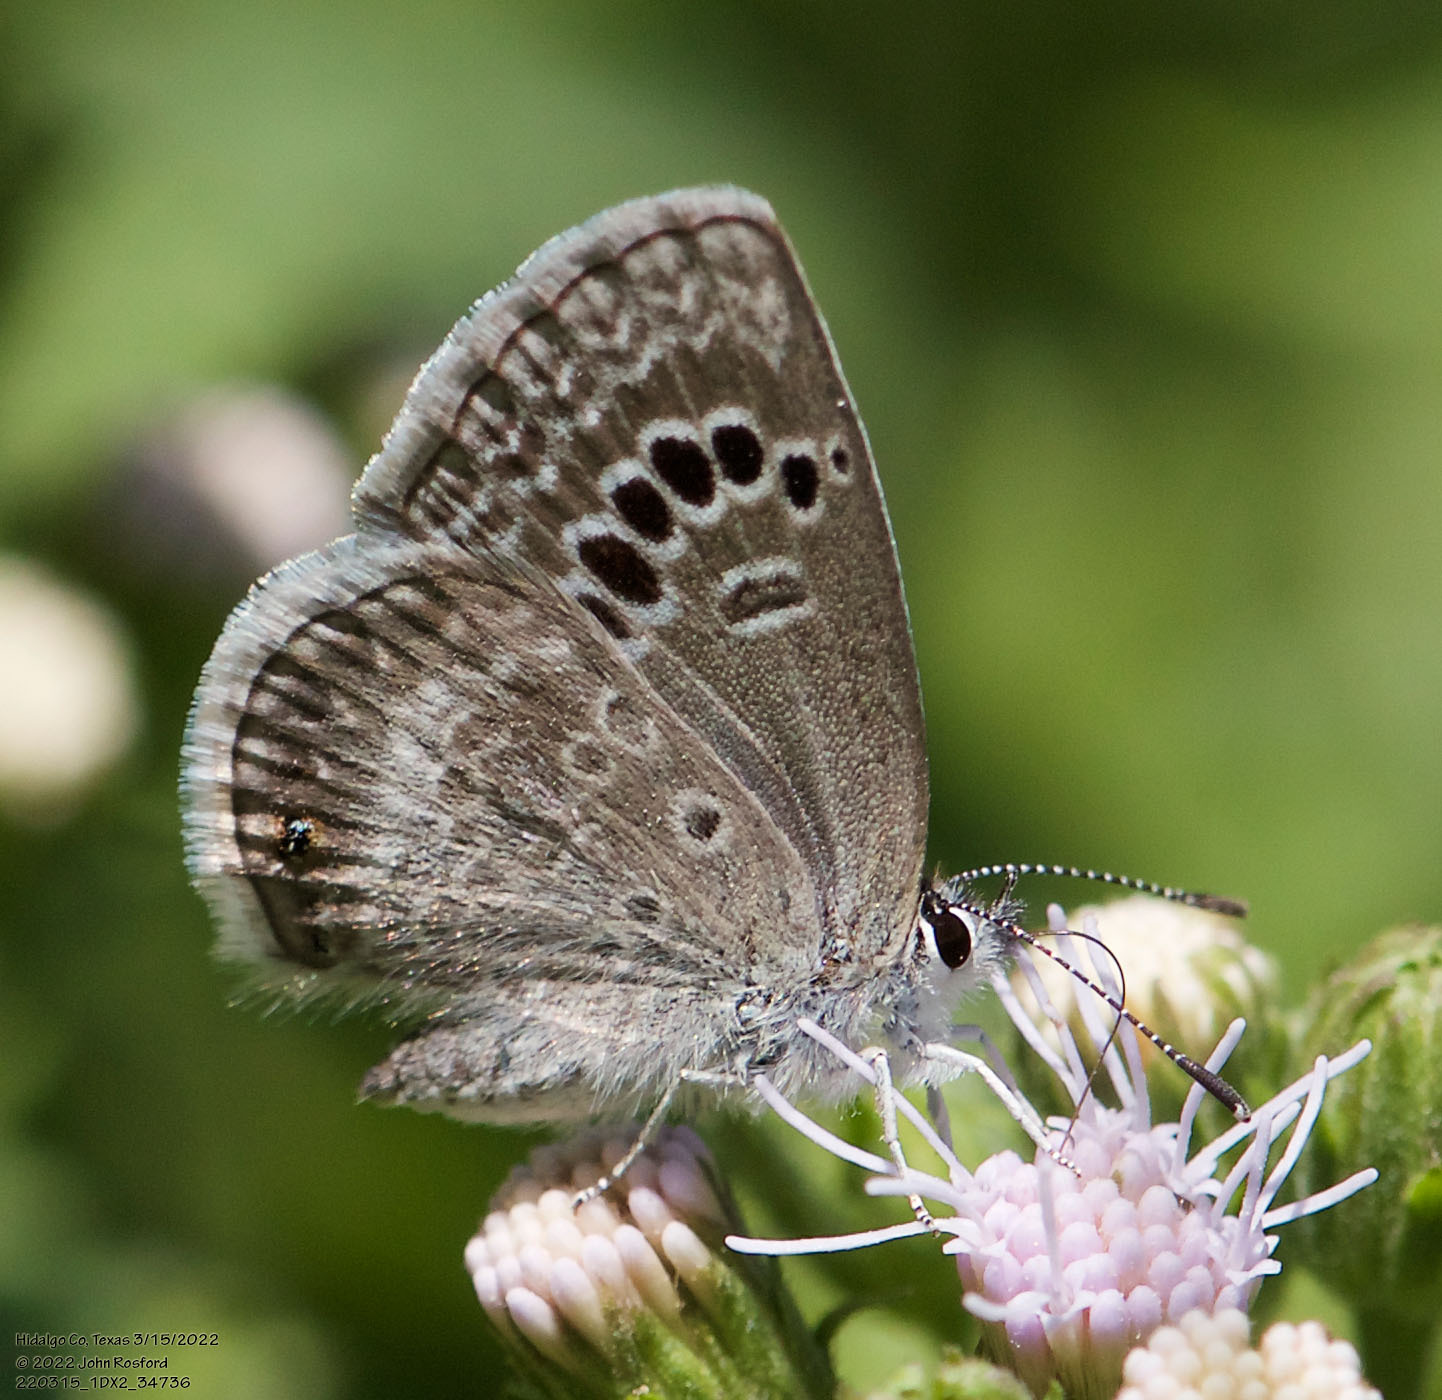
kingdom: Animalia
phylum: Arthropoda
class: Insecta
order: Lepidoptera
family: Lycaenidae
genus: Echinargus
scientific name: Echinargus isola
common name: Reakirt's blue
